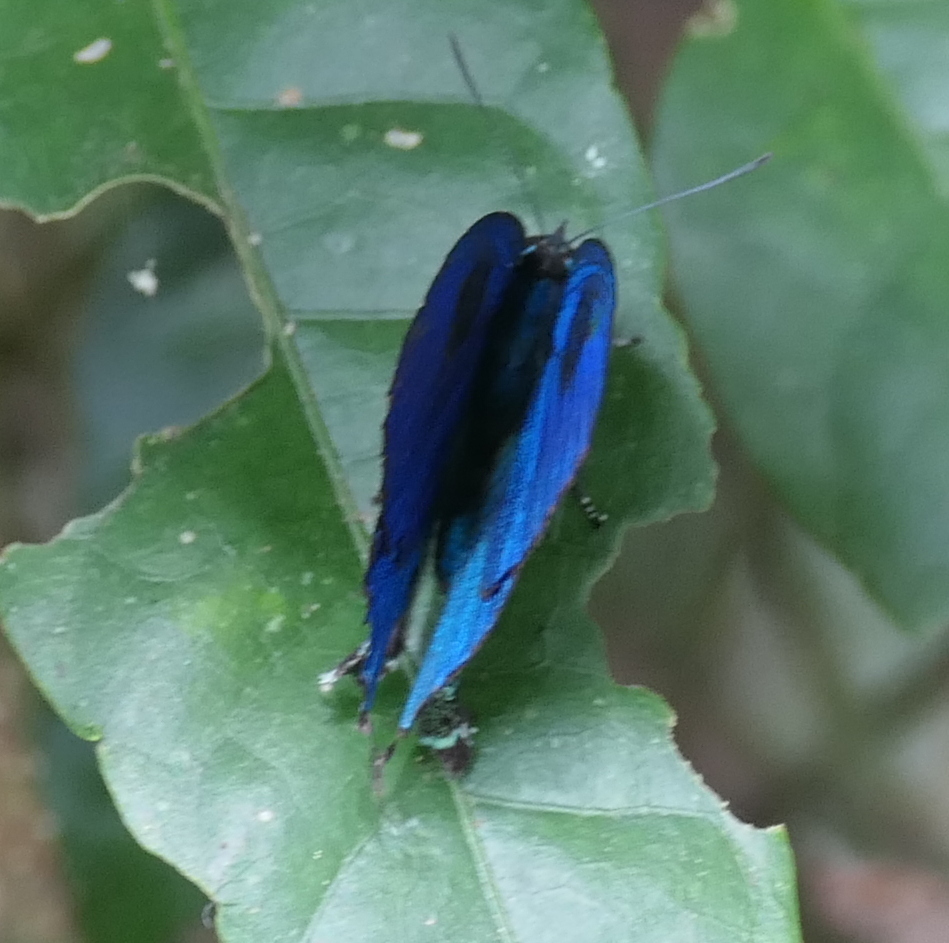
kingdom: Animalia
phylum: Arthropoda
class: Insecta
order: Lepidoptera
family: Lycaenidae
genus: Denivia
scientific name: Denivia hemon
